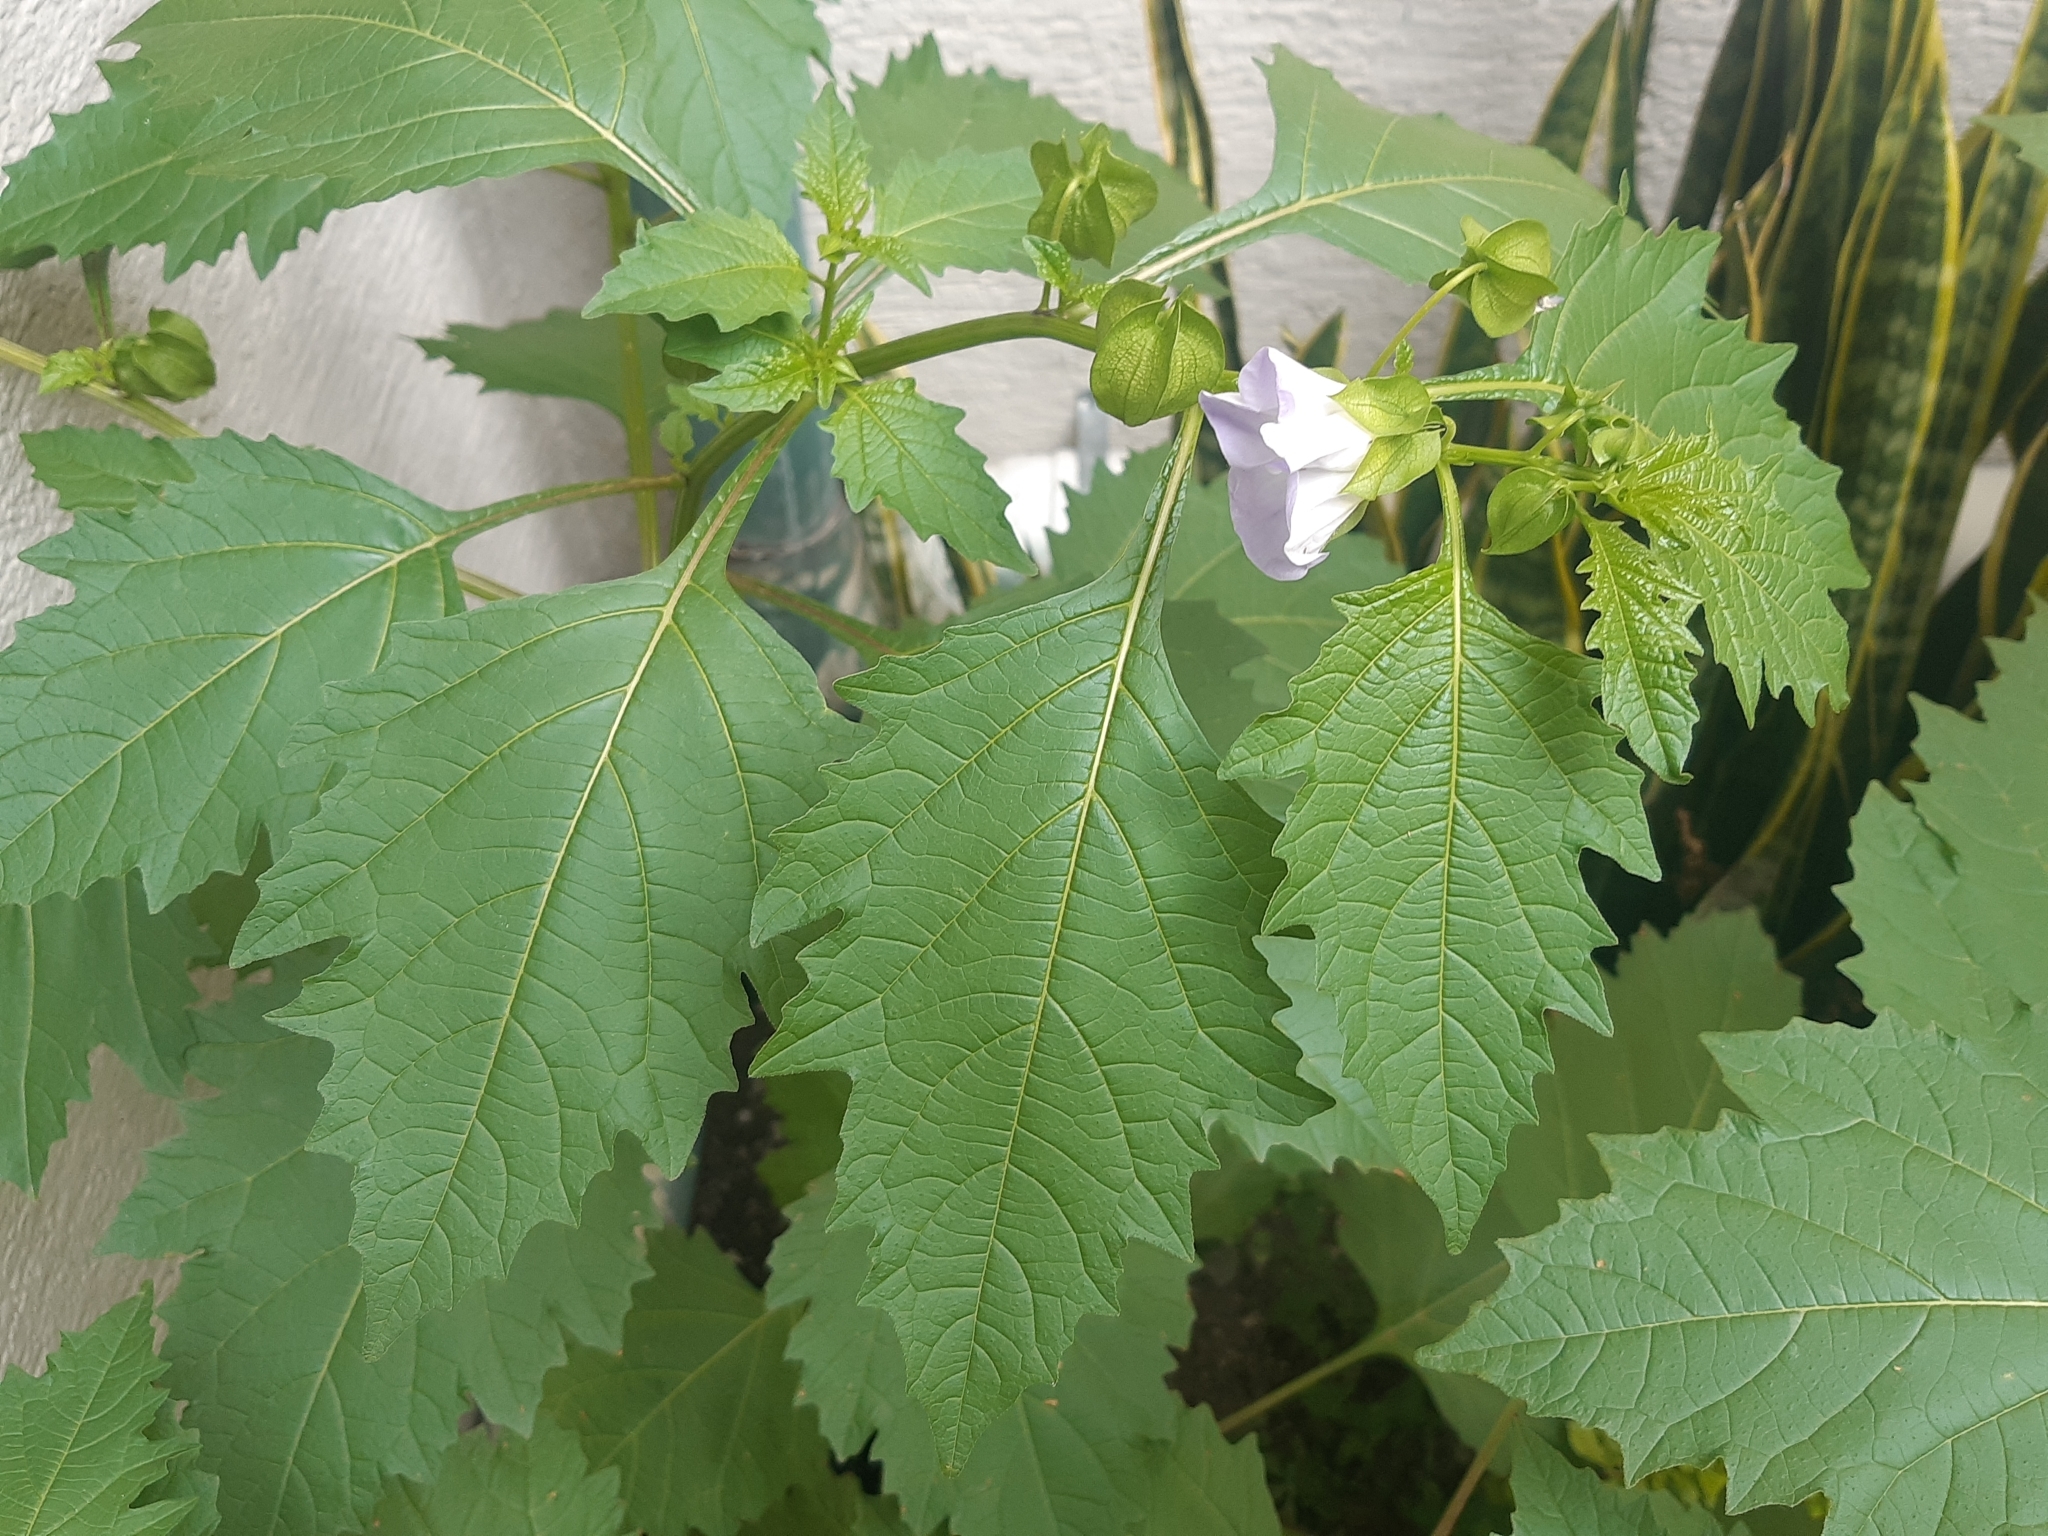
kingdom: Plantae
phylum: Tracheophyta
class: Magnoliopsida
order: Solanales
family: Solanaceae
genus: Nicandra
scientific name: Nicandra physalodes
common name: Apple-of-peru
